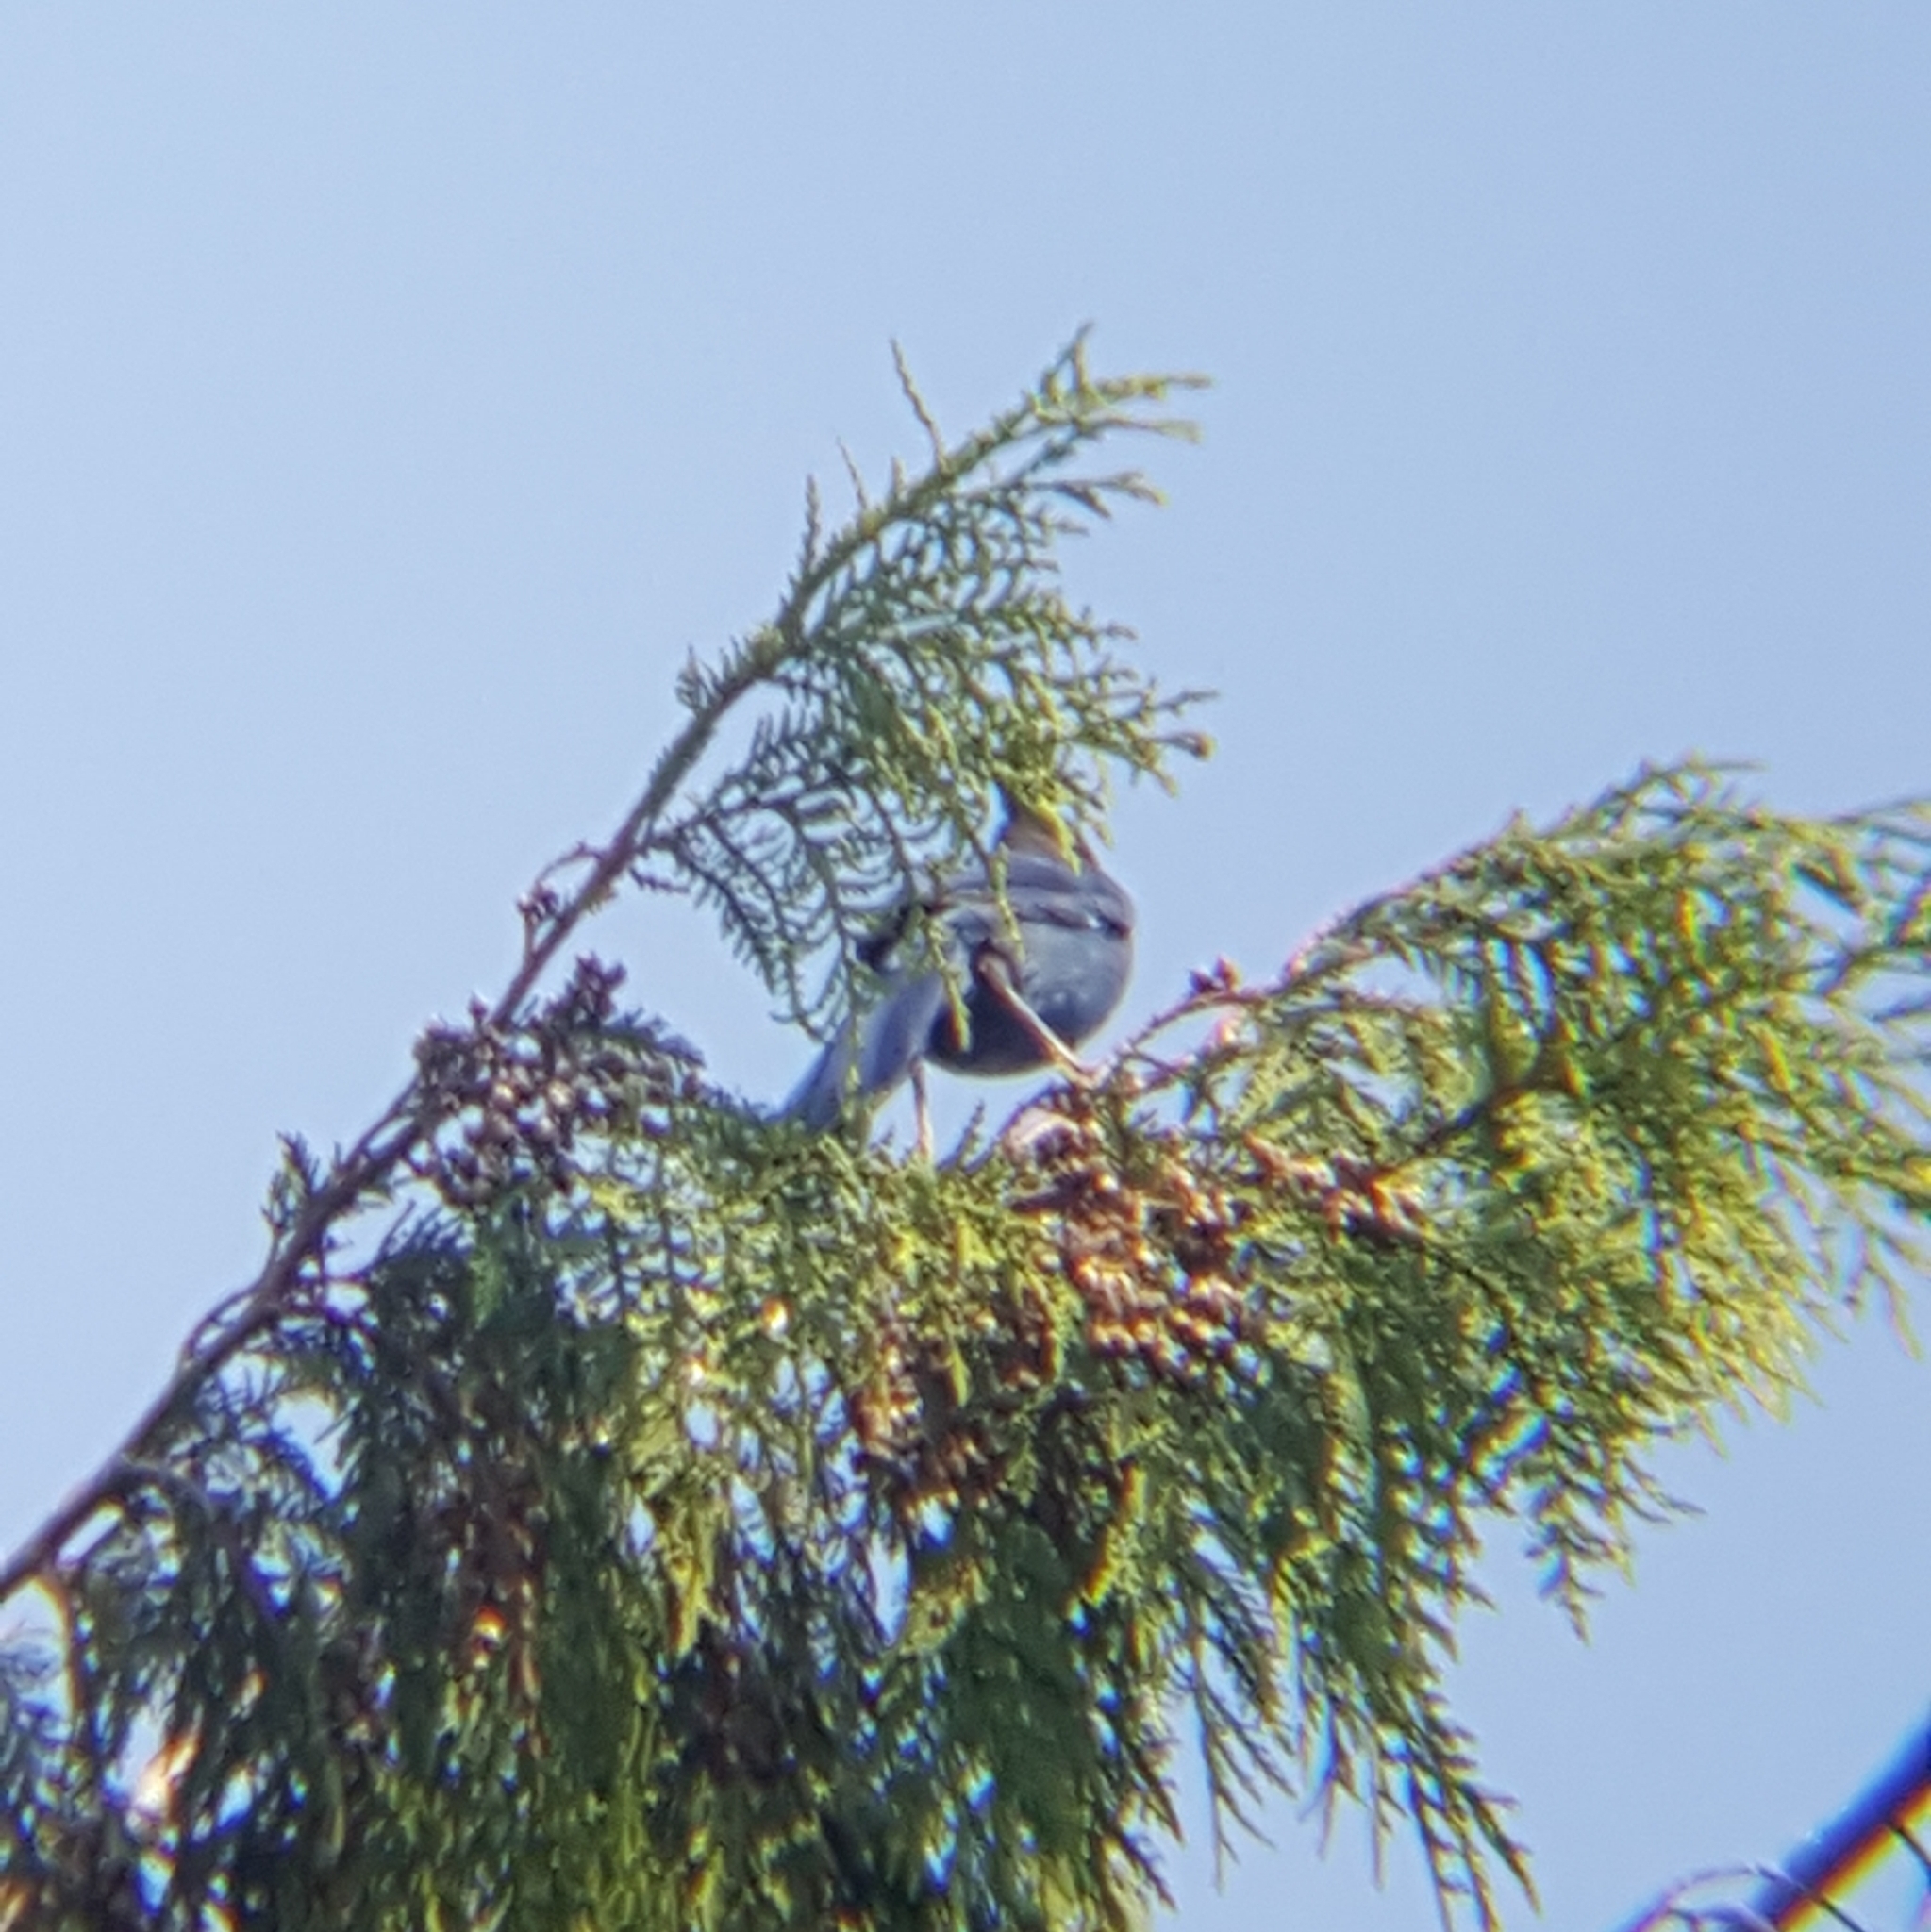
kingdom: Animalia
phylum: Chordata
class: Aves
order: Passeriformes
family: Corvidae
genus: Cyanocitta
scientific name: Cyanocitta stelleri
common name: Steller's jay
